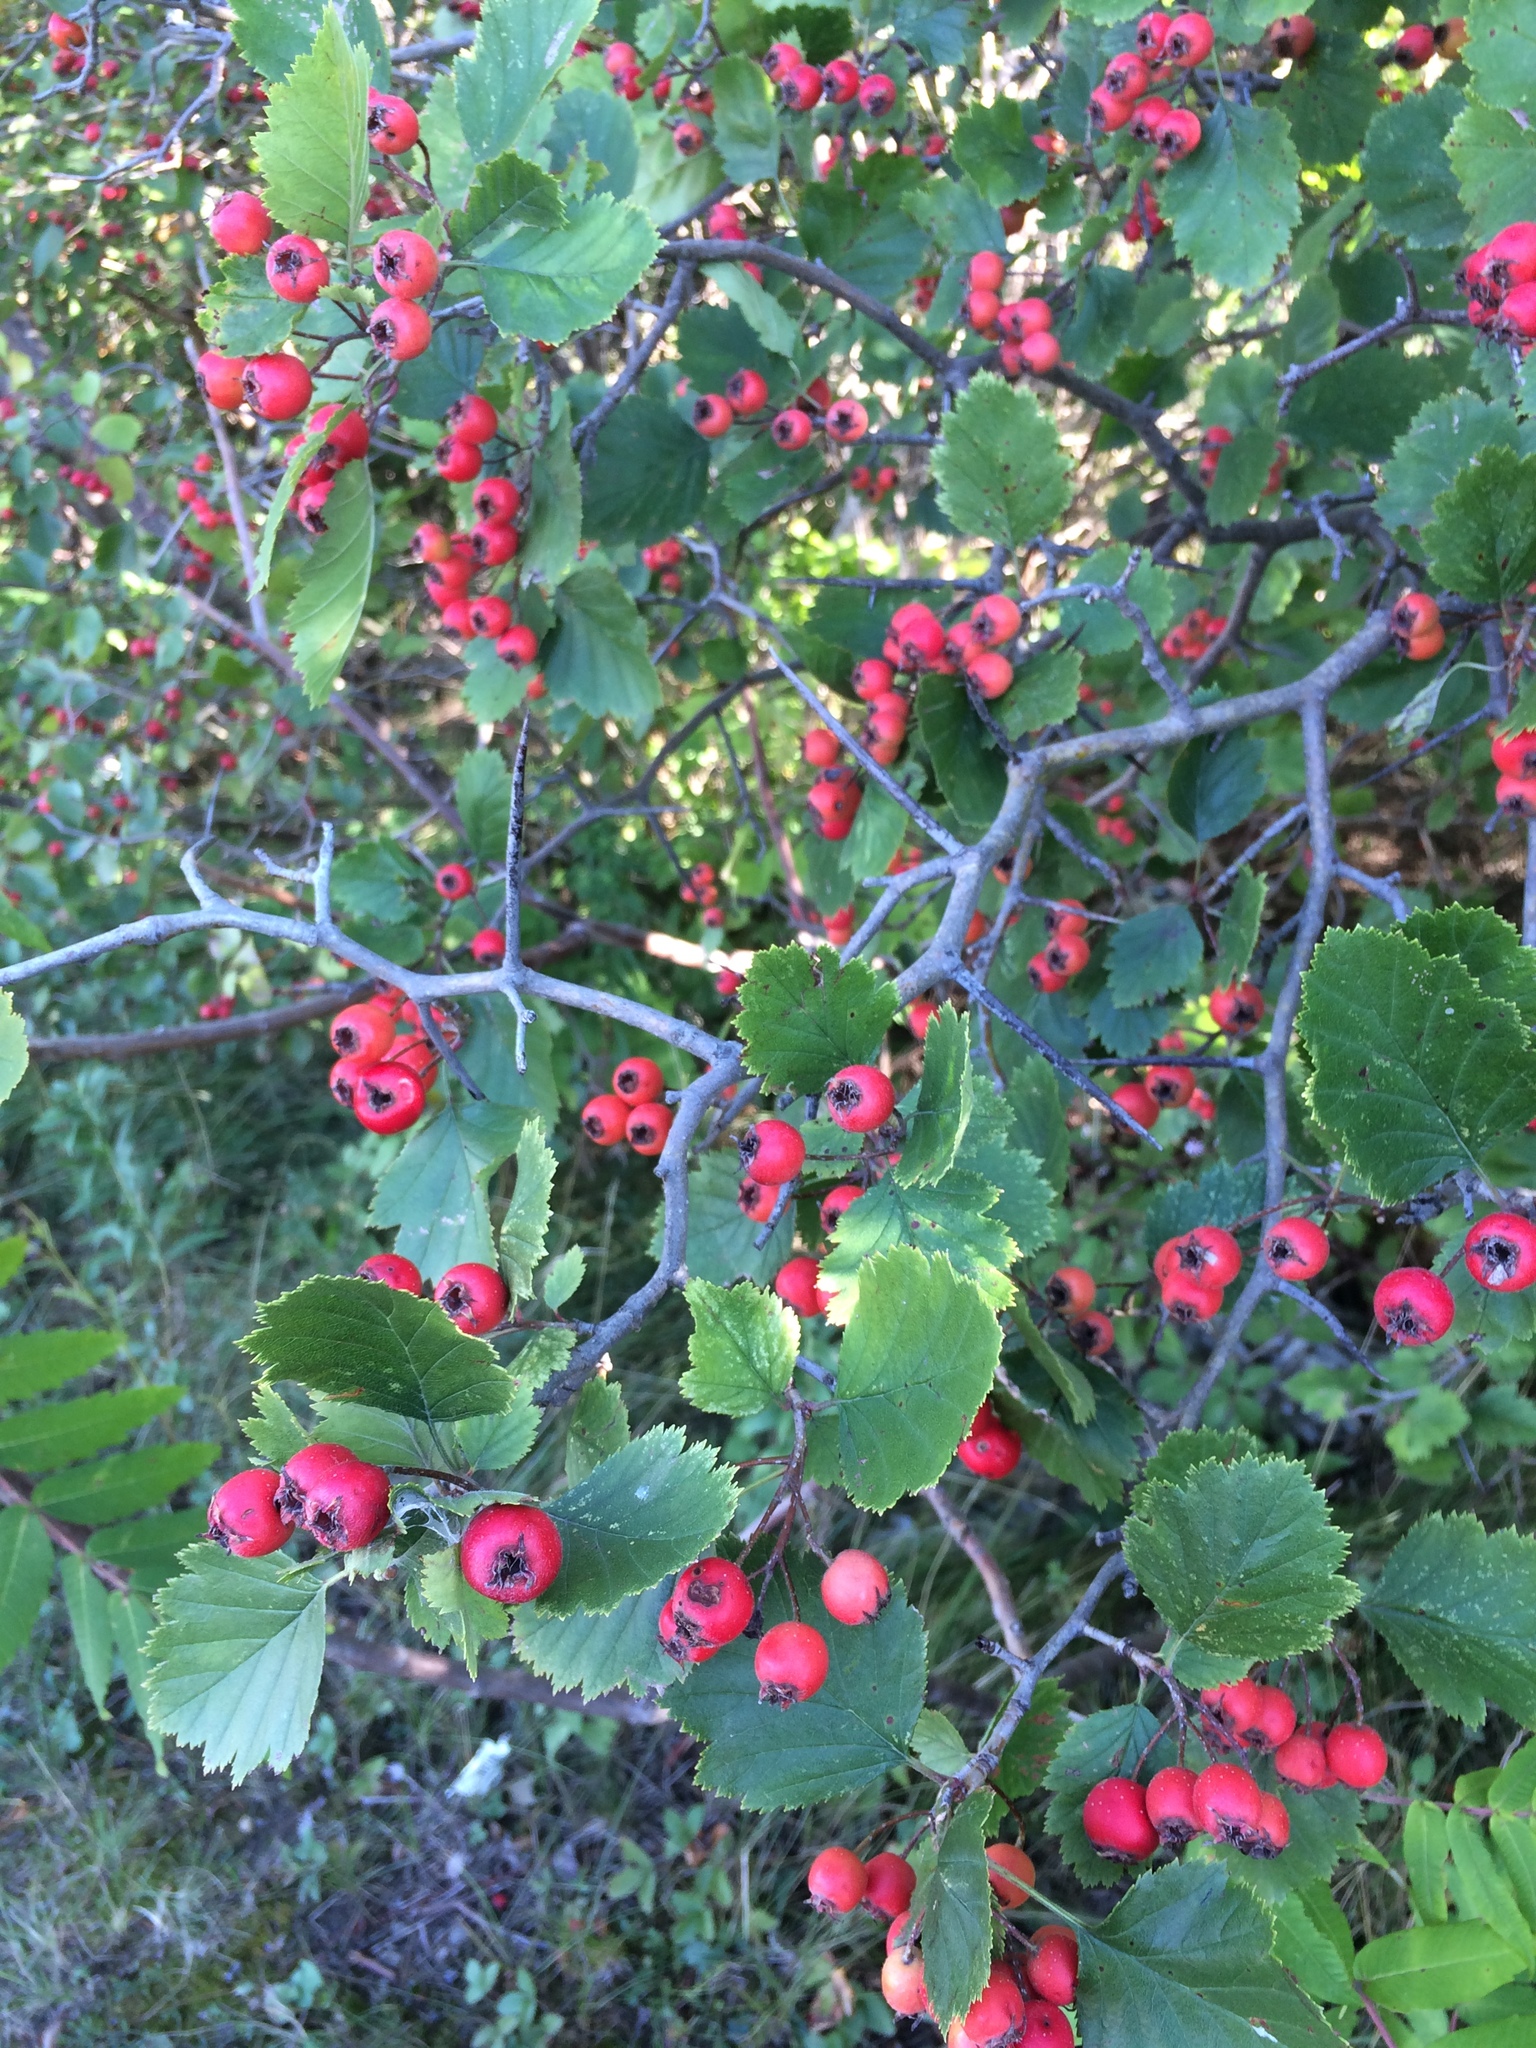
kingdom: Plantae
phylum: Tracheophyta
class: Magnoliopsida
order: Rosales
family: Rosaceae
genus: Crataegus
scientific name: Crataegus submollis
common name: Hairy cockspurthorn
